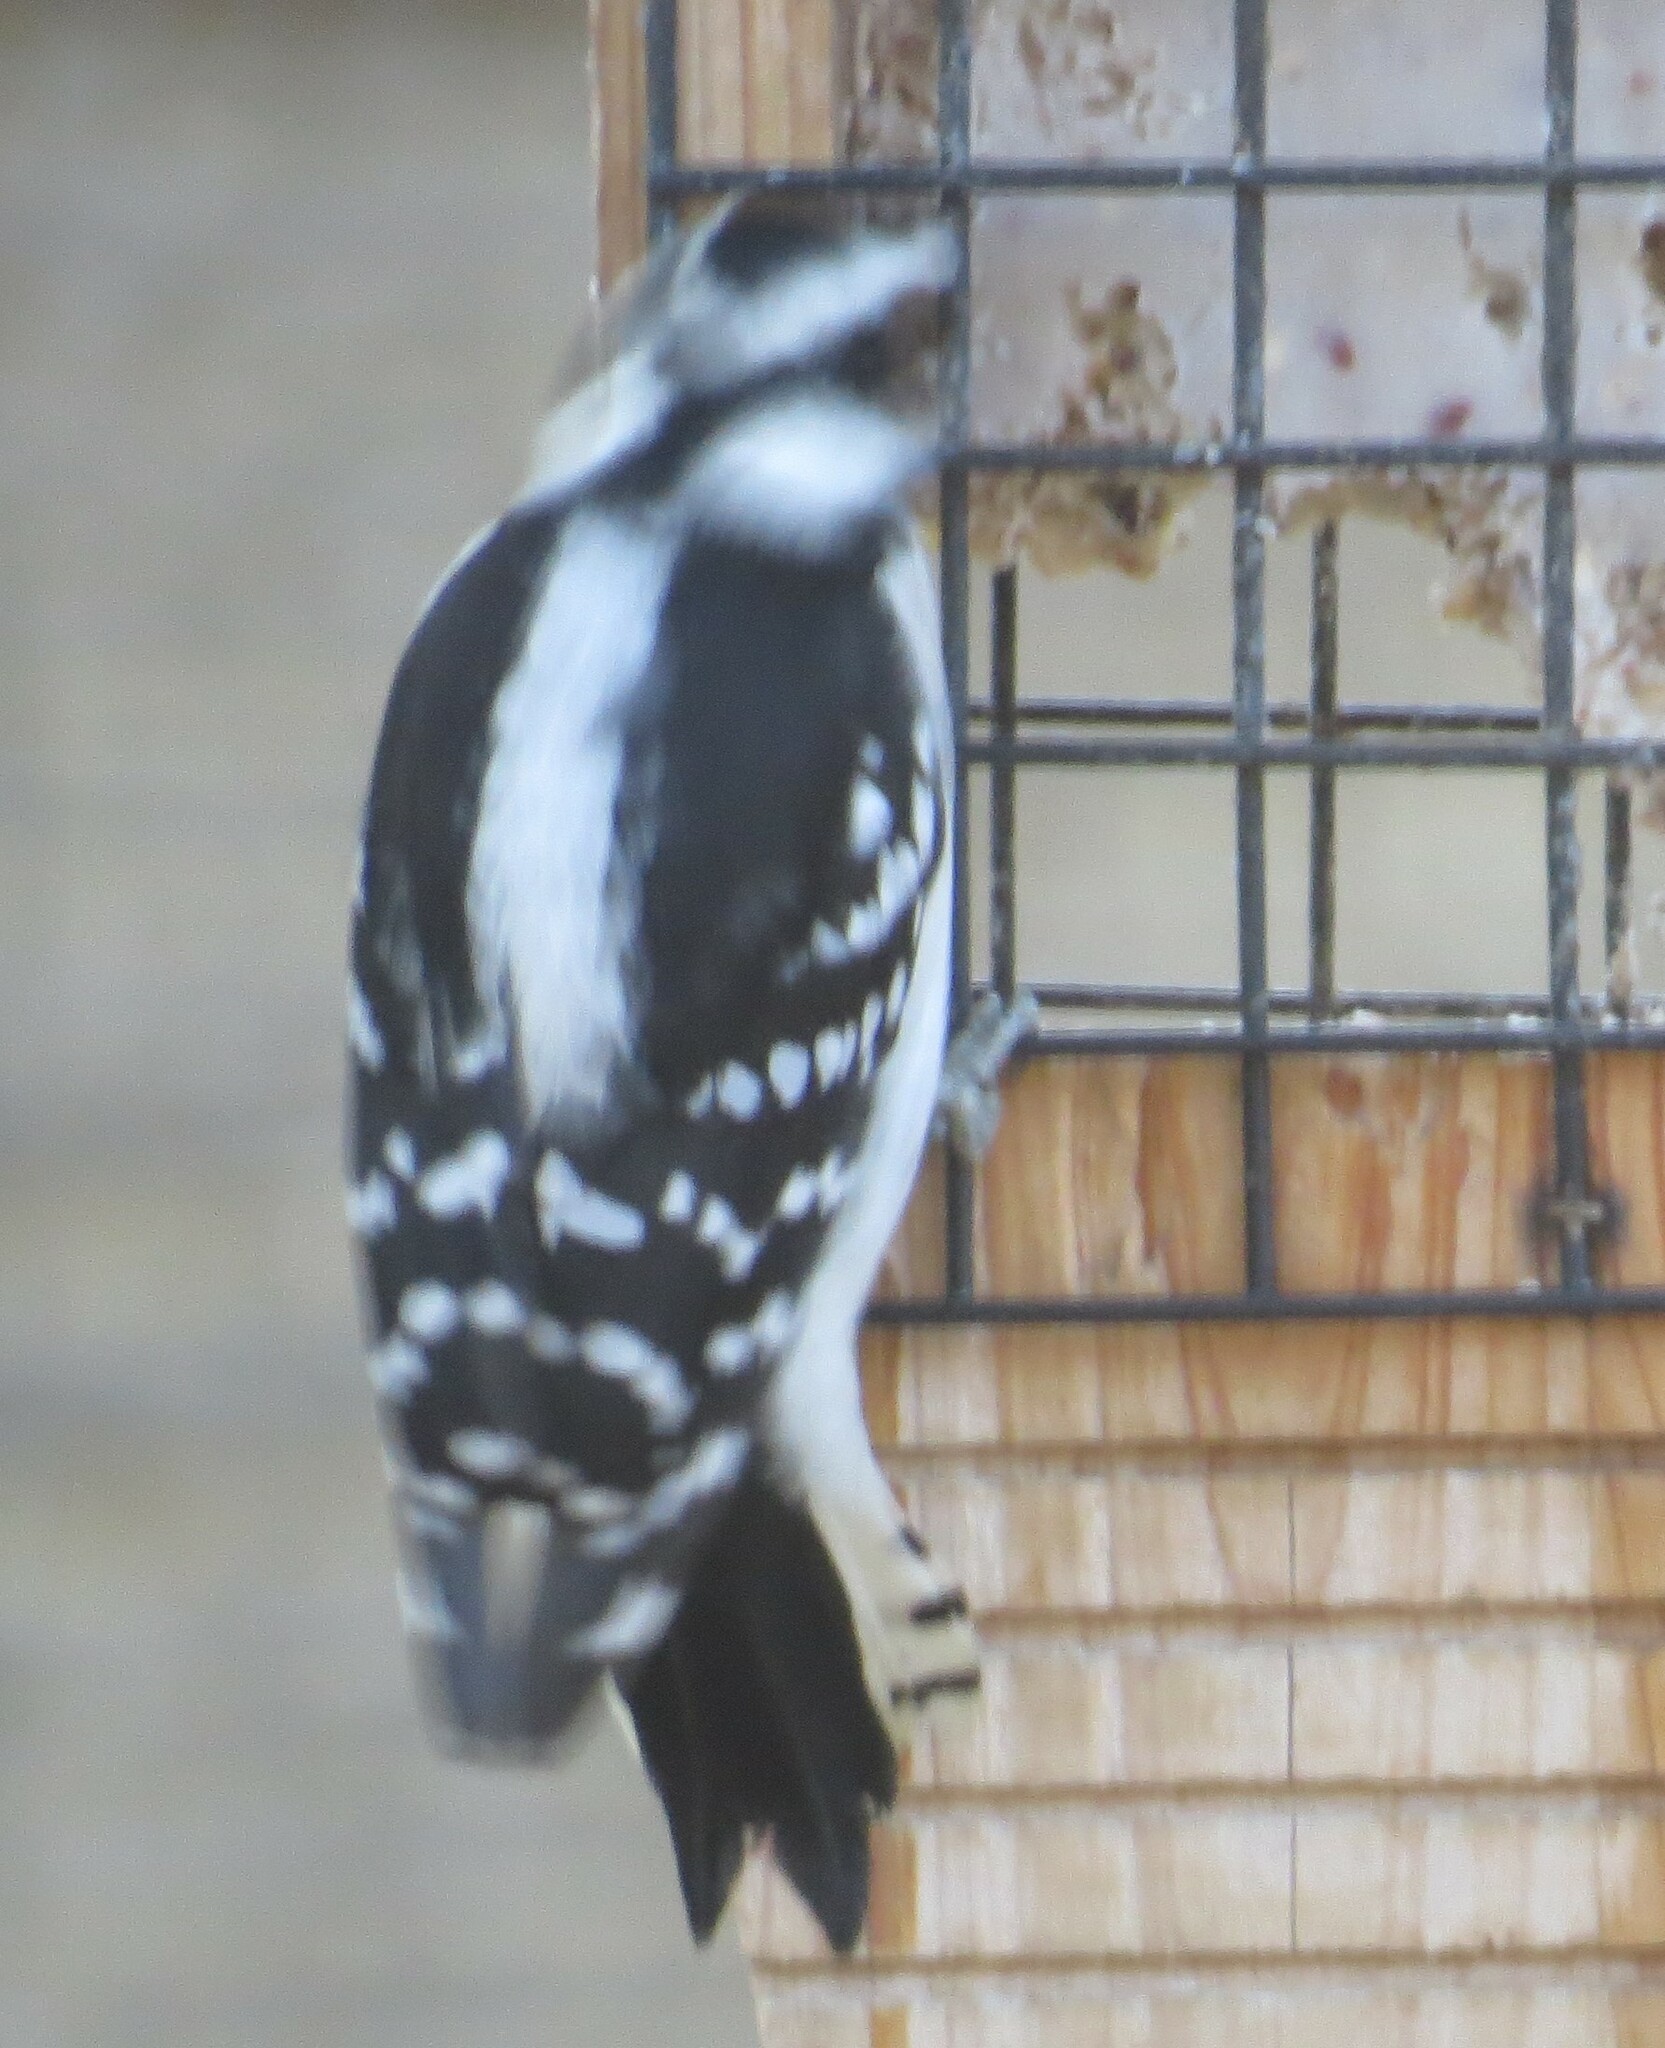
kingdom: Animalia
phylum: Chordata
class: Aves
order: Piciformes
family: Picidae
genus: Dryobates
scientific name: Dryobates pubescens
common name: Downy woodpecker
